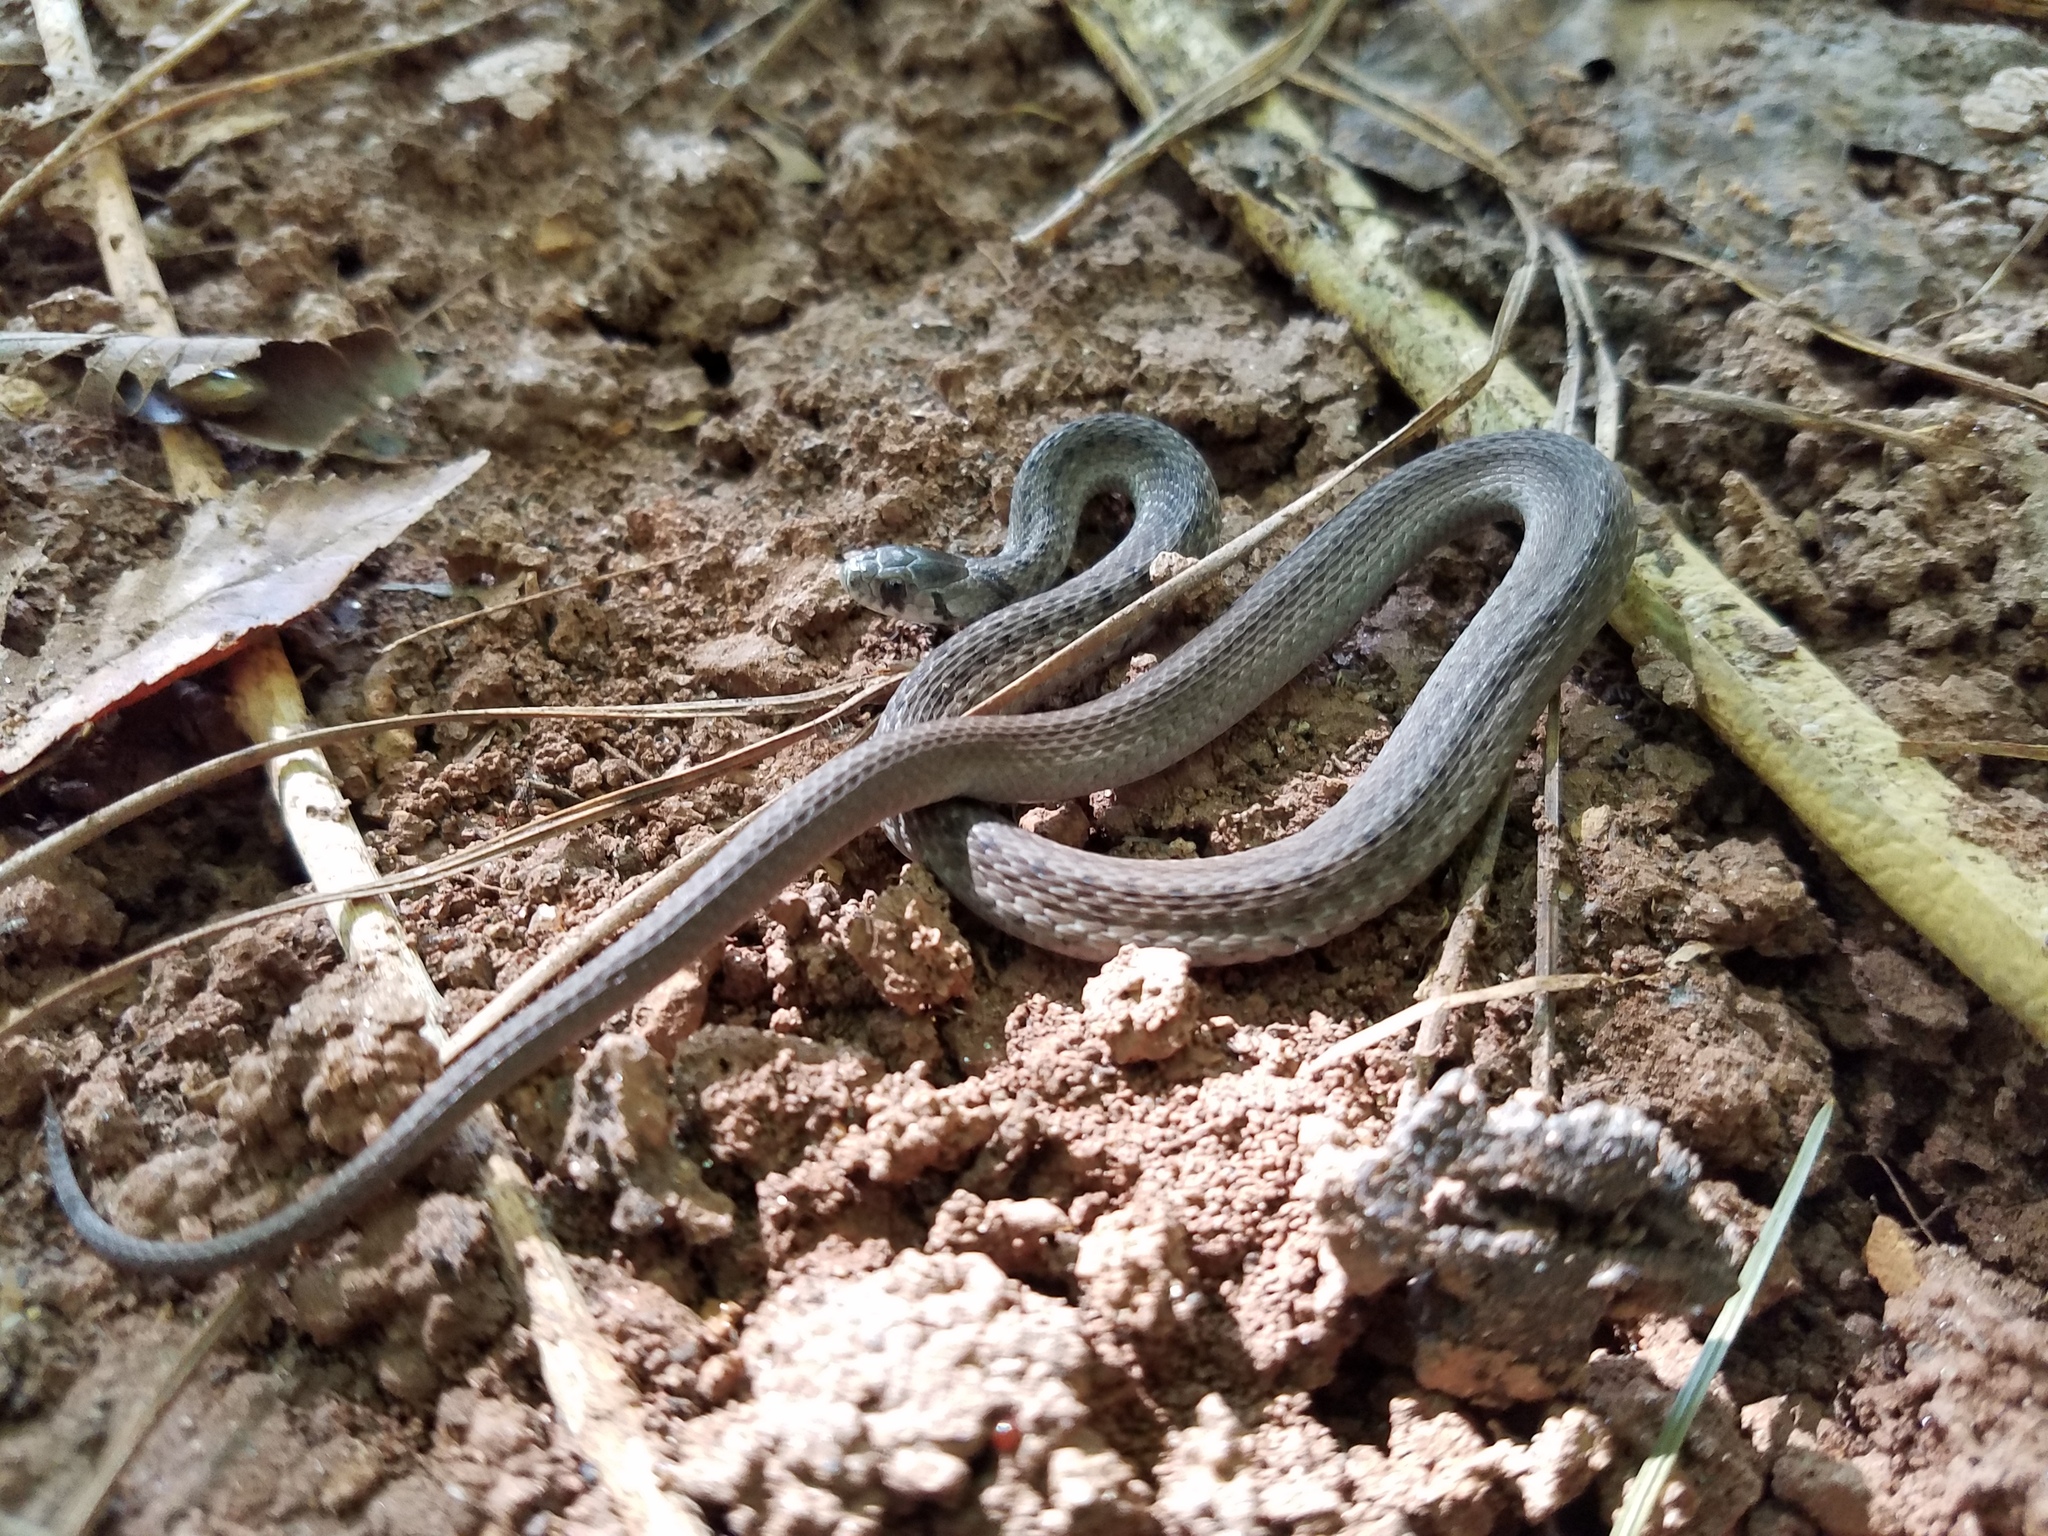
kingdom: Animalia
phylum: Chordata
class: Squamata
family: Colubridae
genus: Storeria
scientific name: Storeria dekayi
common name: (dekay’s) brown snake
